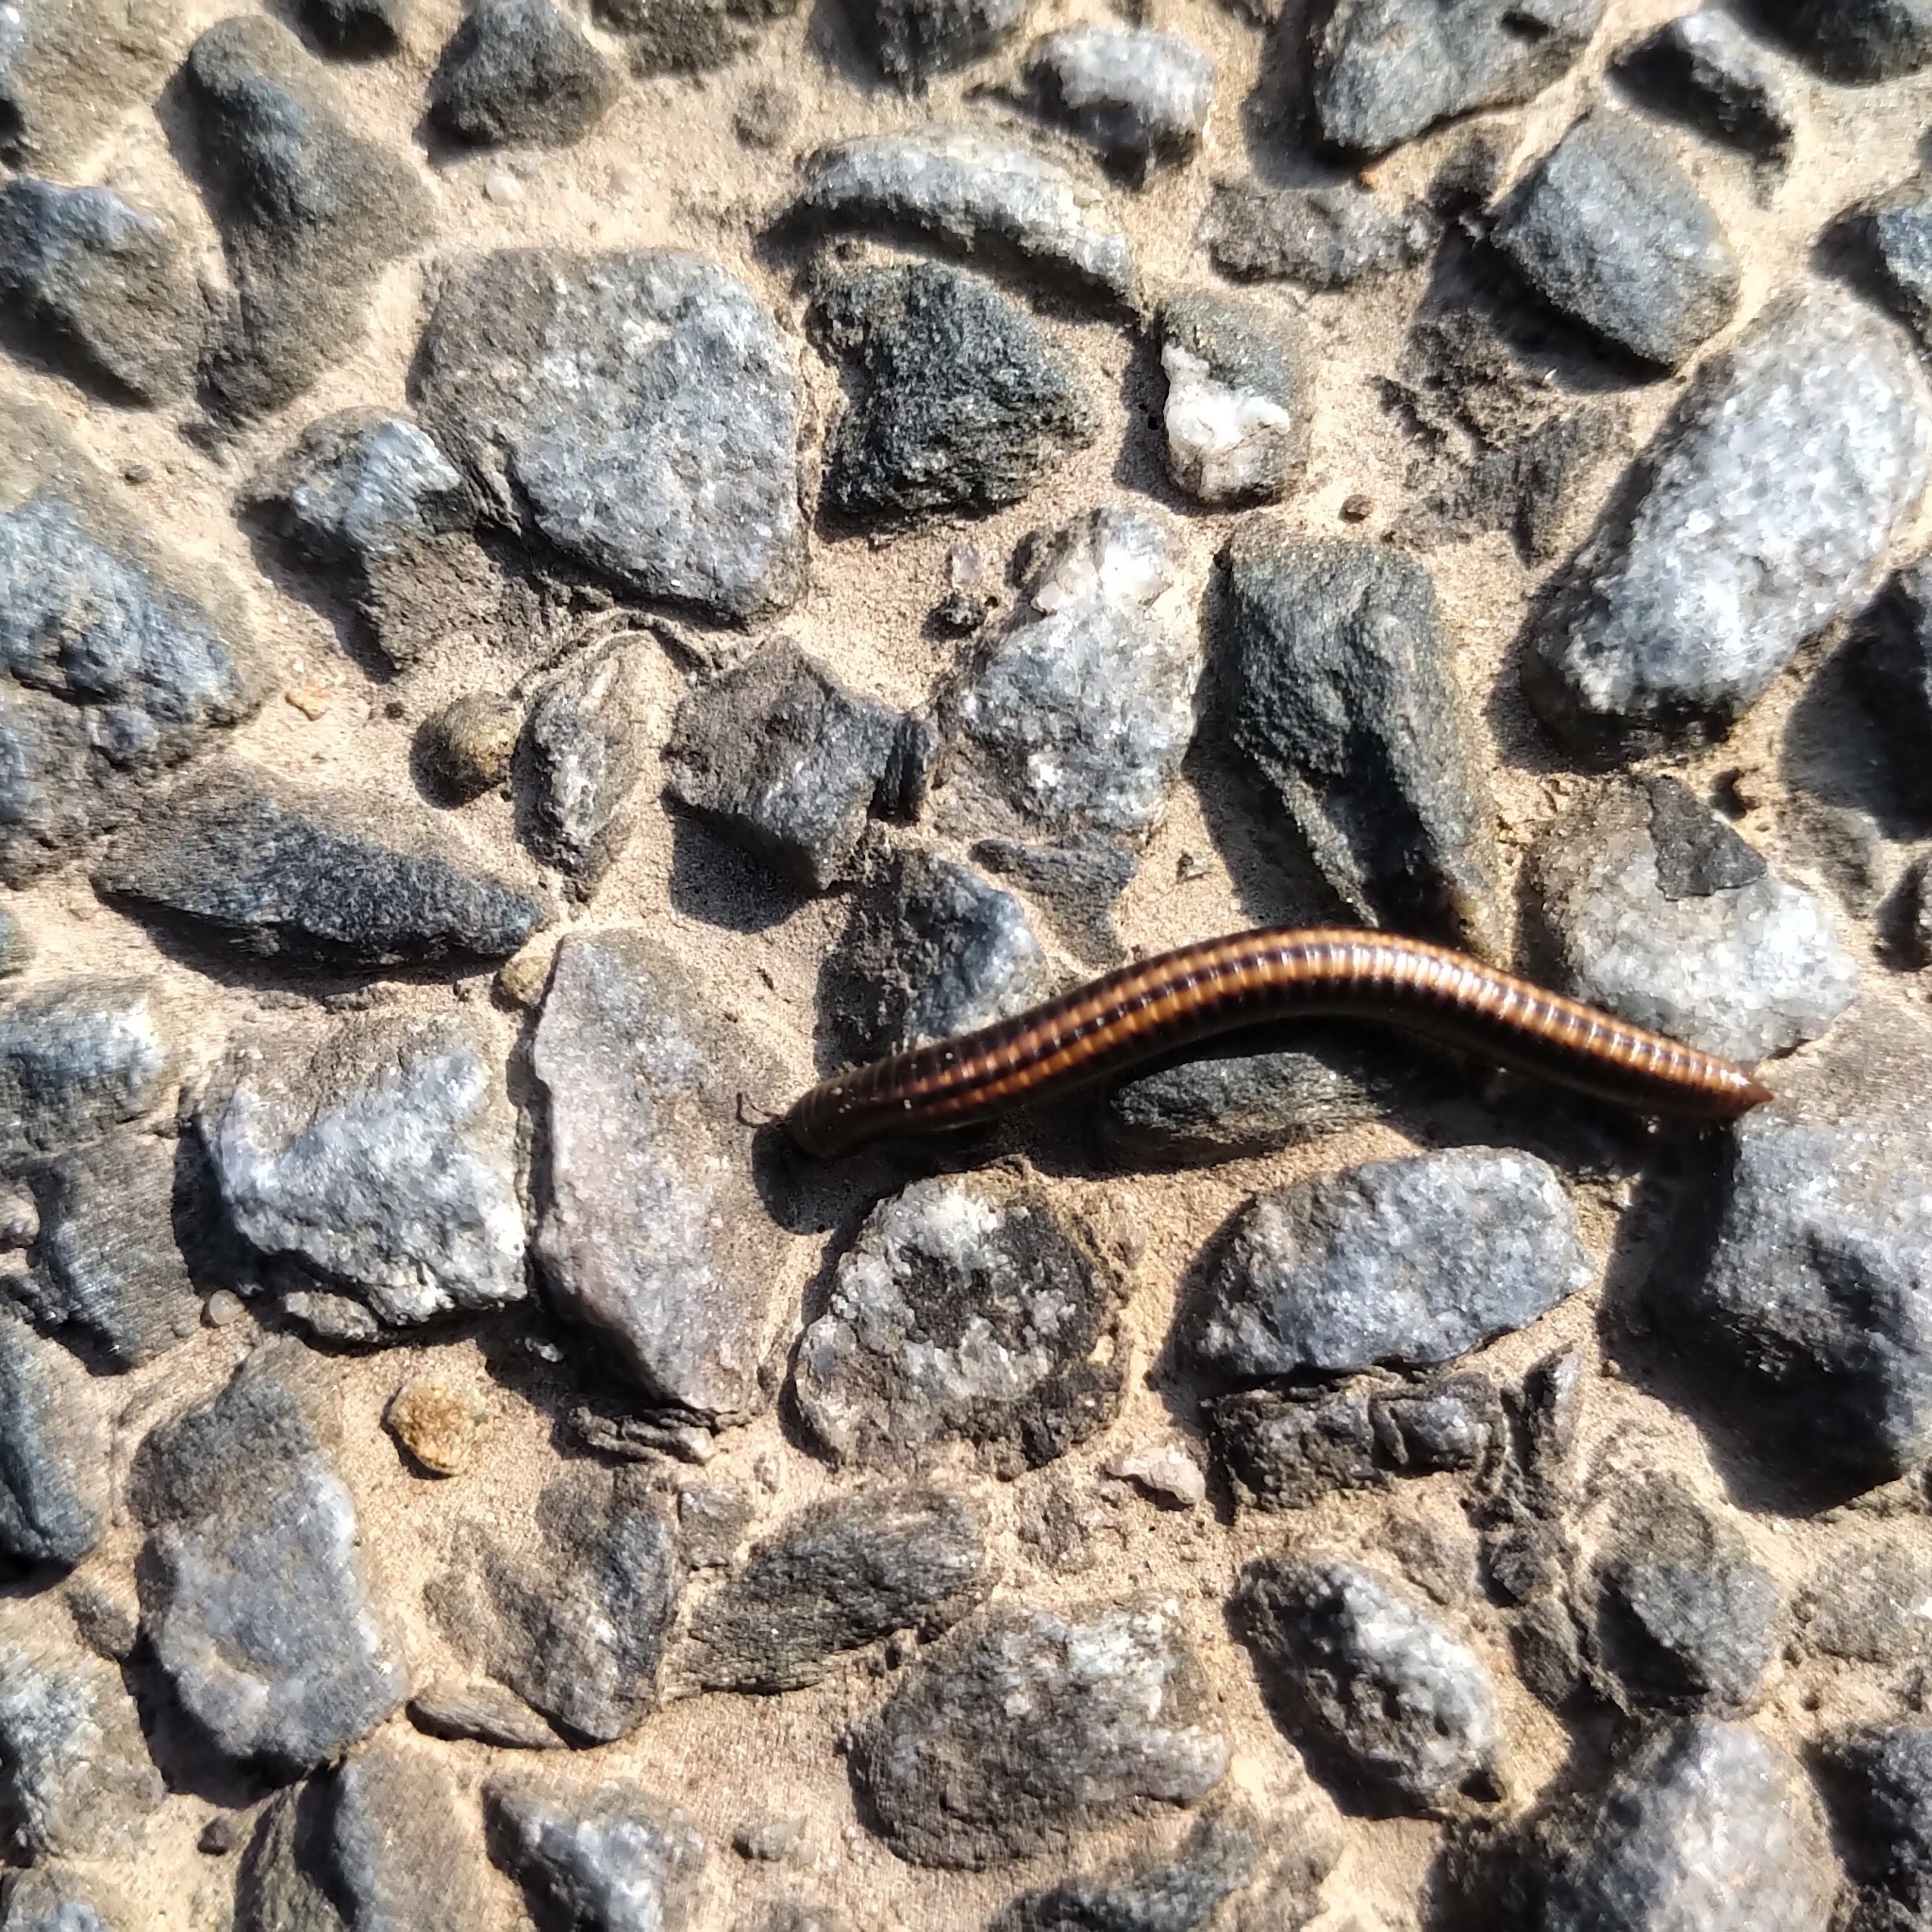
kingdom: Animalia
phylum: Arthropoda
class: Diplopoda
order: Julida
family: Julidae
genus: Ommatoiulus
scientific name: Ommatoiulus sabulosus
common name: Striped millipede
